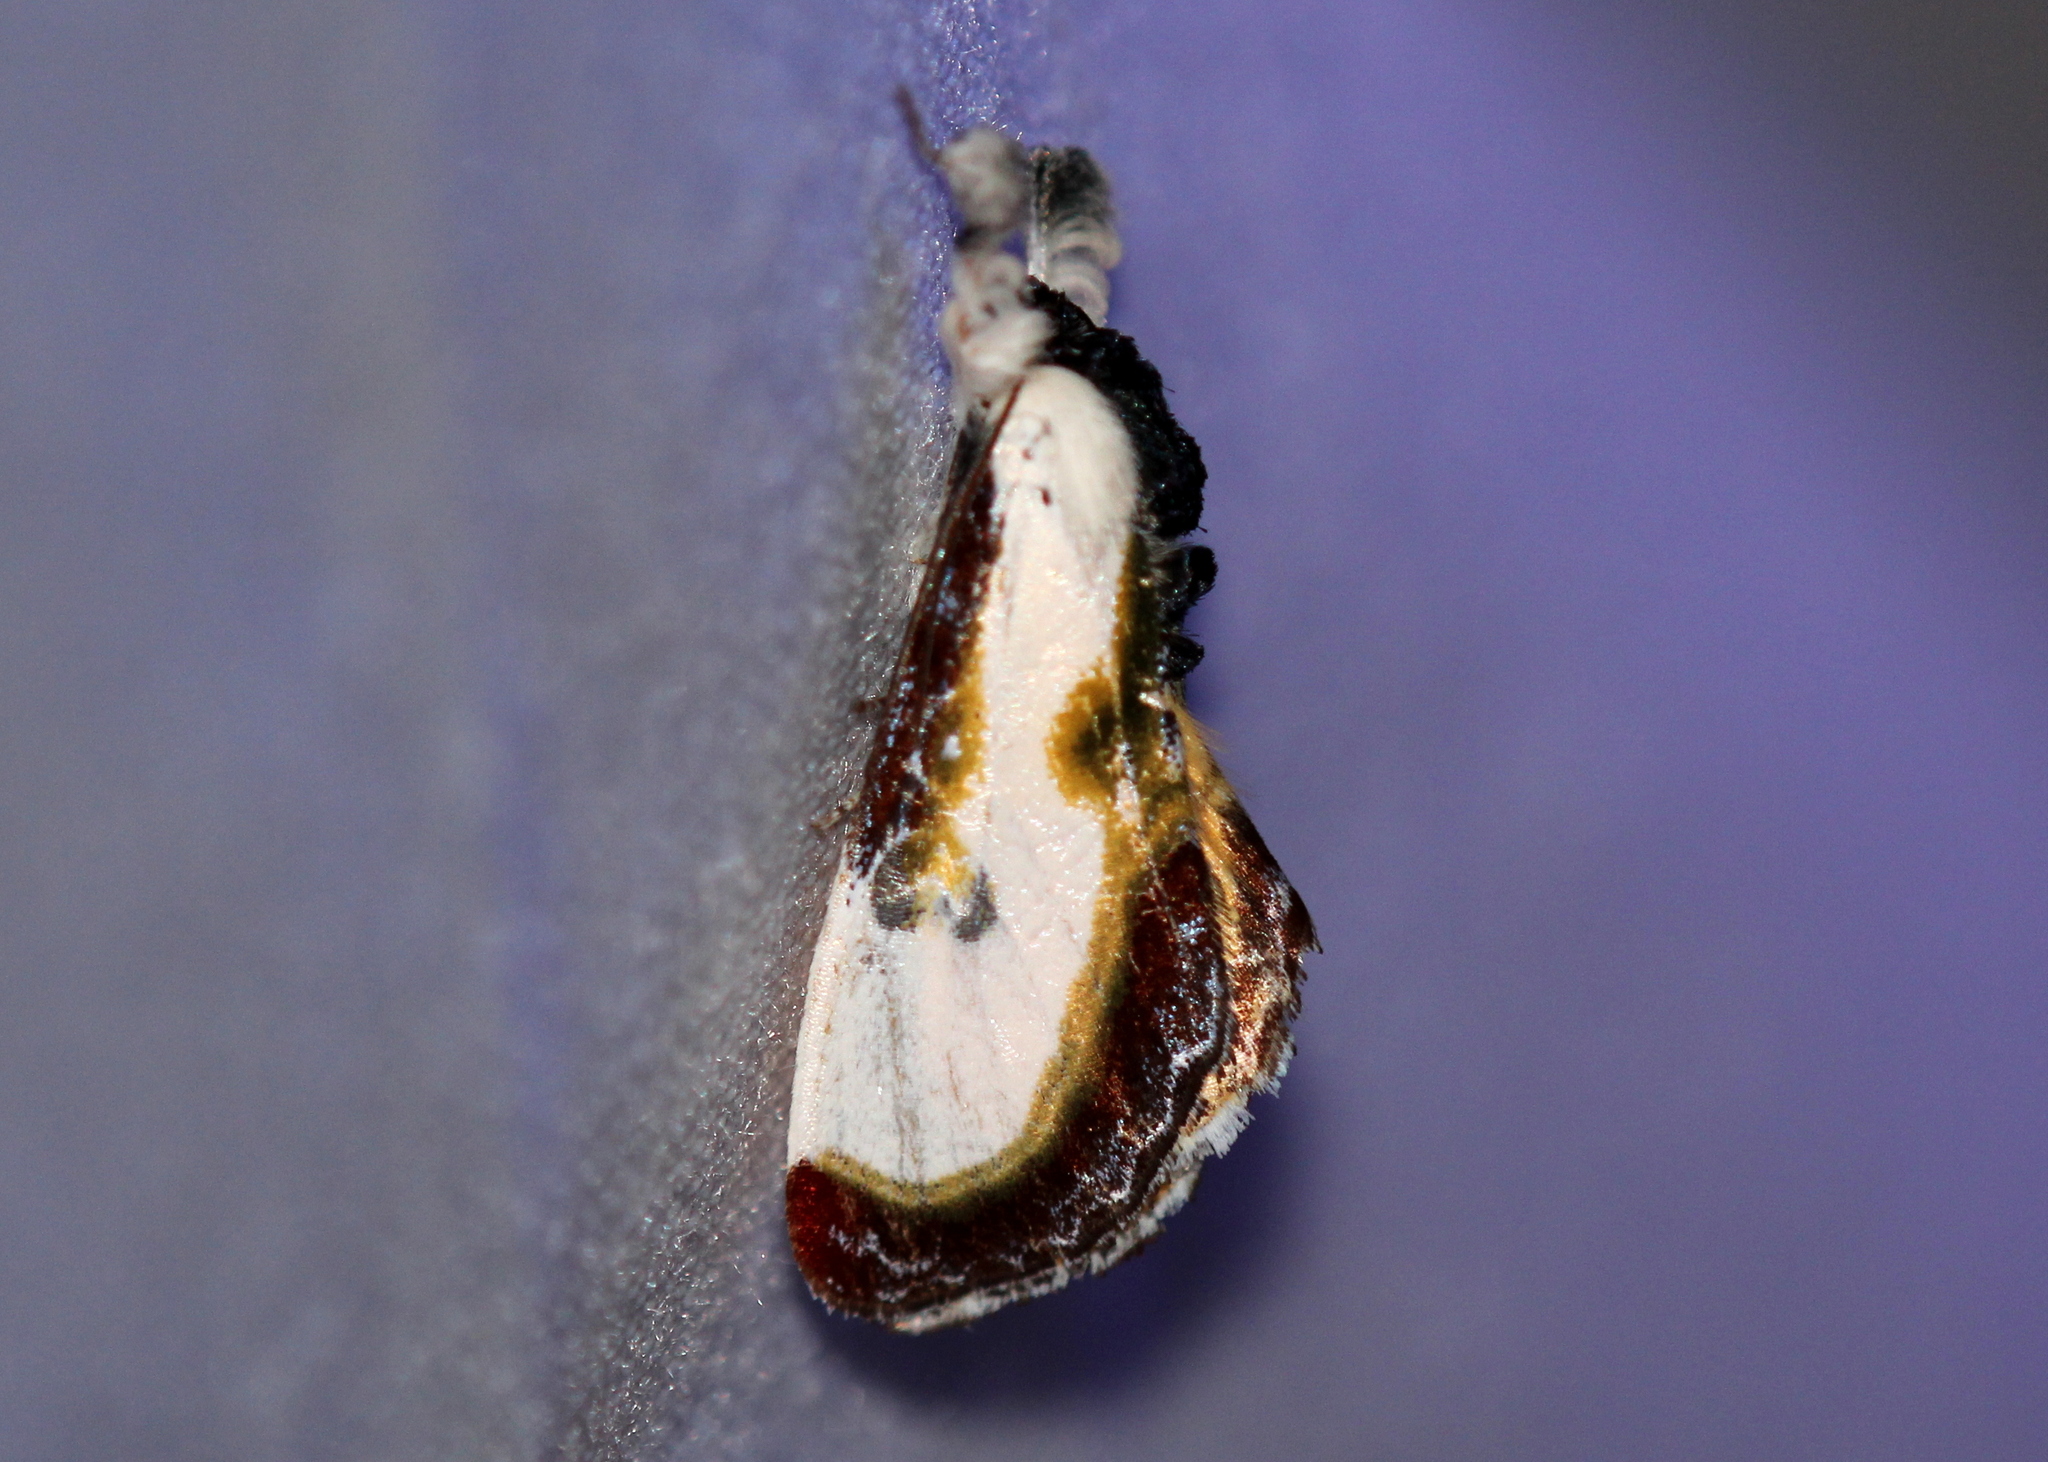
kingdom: Animalia
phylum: Arthropoda
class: Insecta
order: Lepidoptera
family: Noctuidae
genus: Eudryas
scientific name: Eudryas grata
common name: Beautiful wood-nymph
